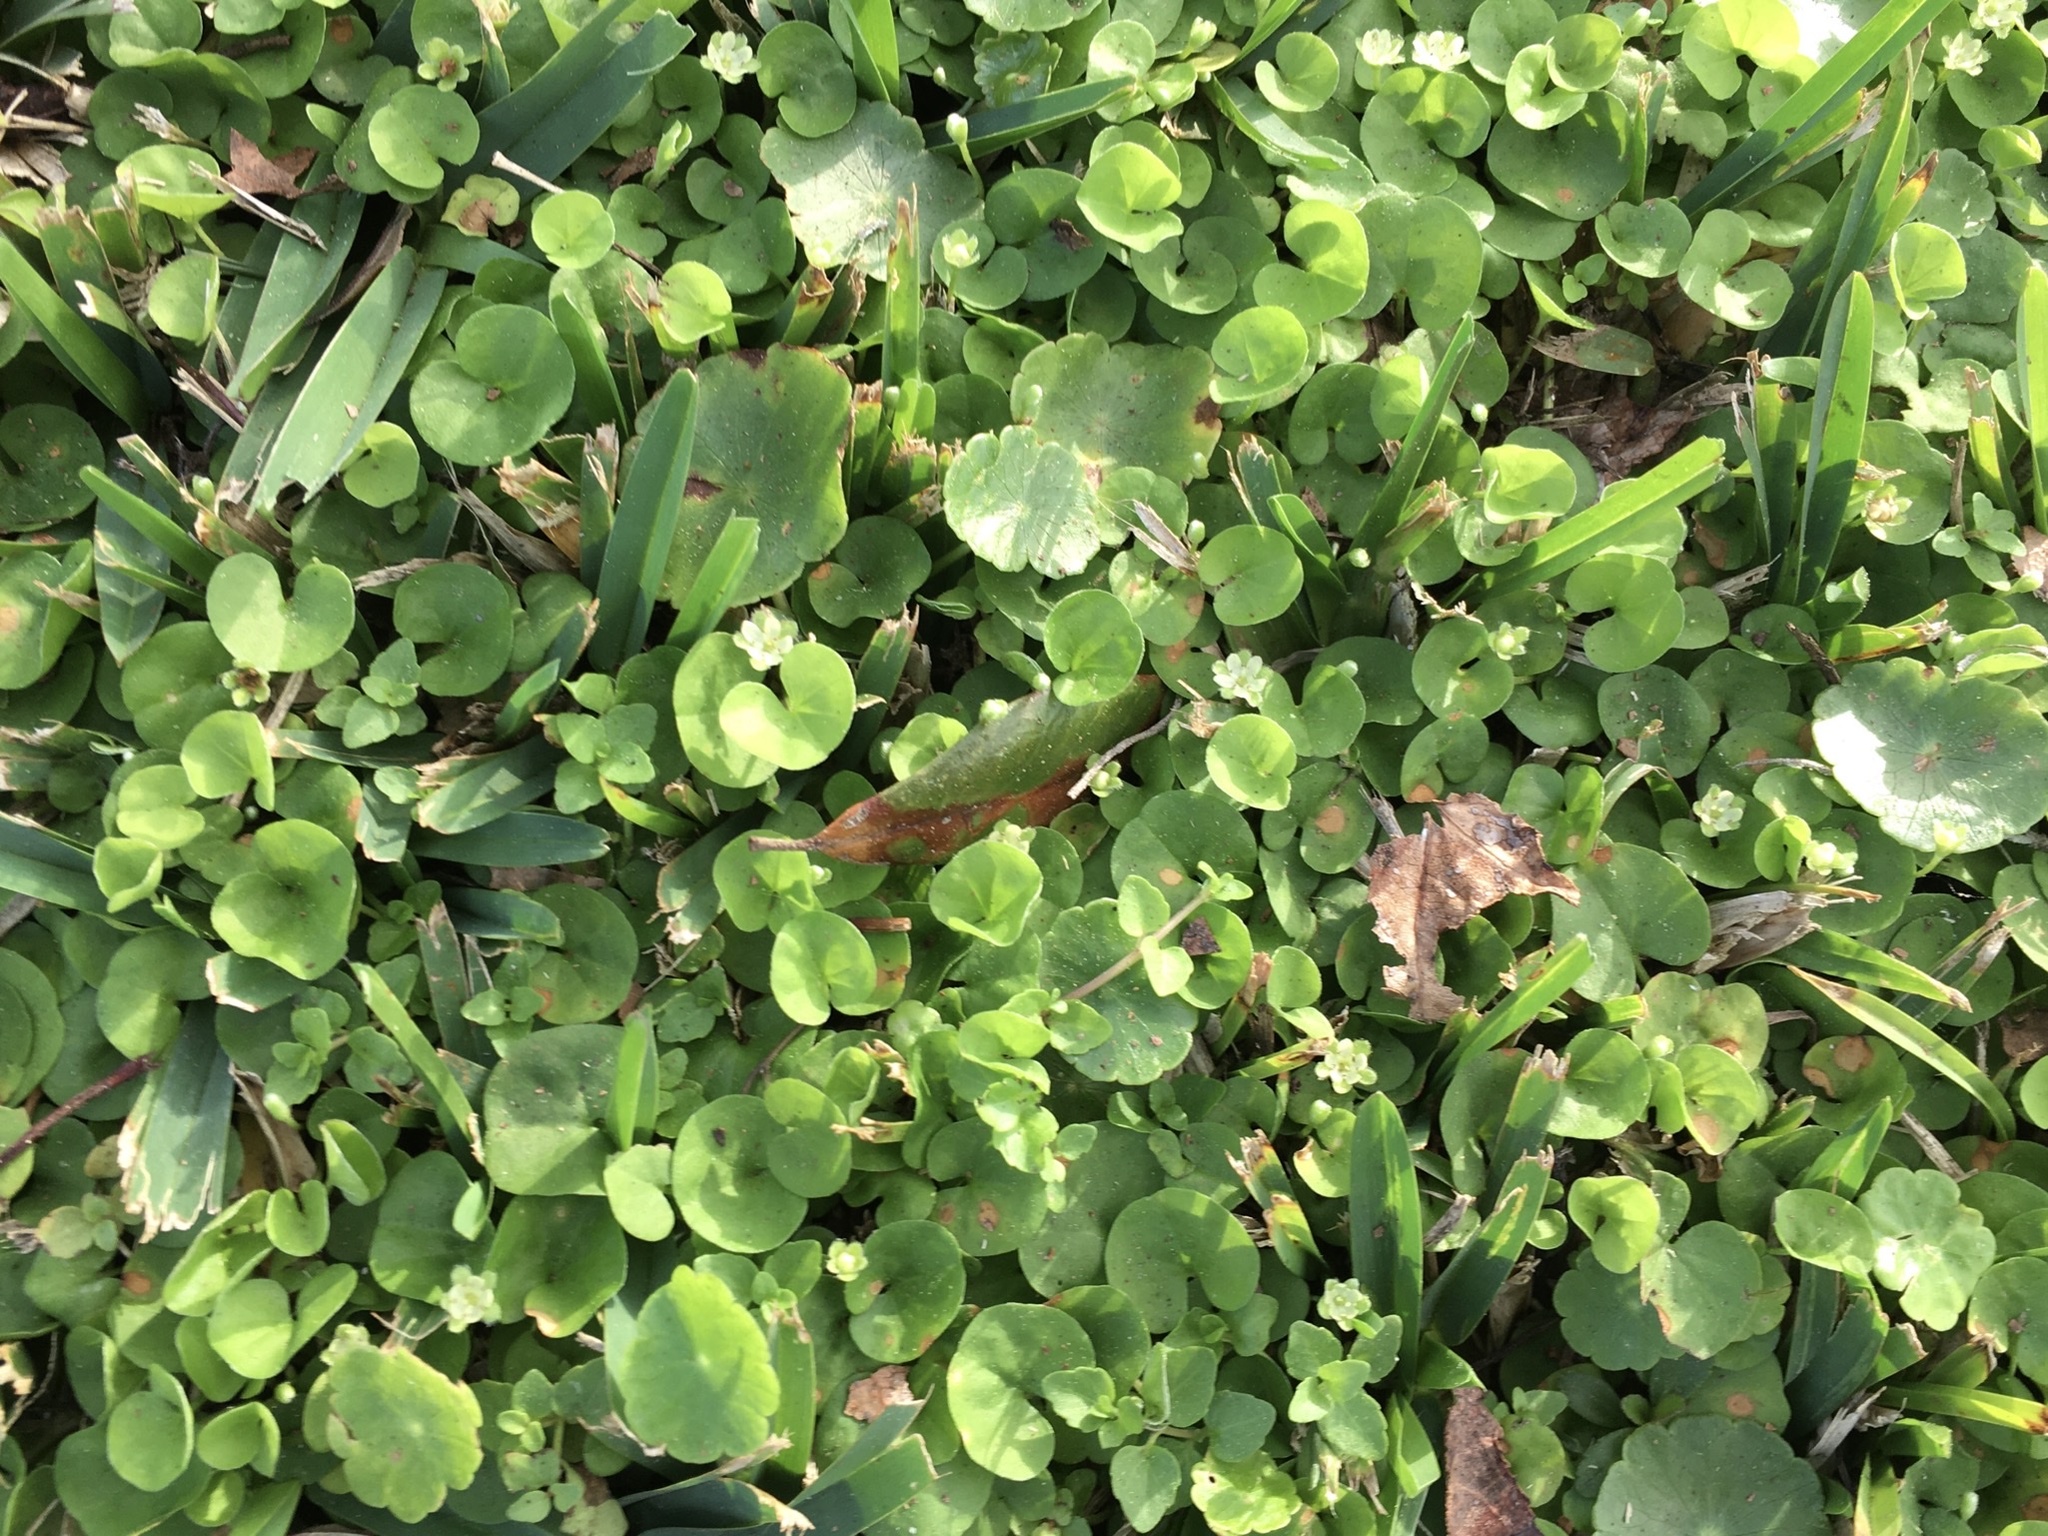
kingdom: Plantae
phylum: Tracheophyta
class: Magnoliopsida
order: Solanales
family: Convolvulaceae
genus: Dichondra
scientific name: Dichondra carolinensis
